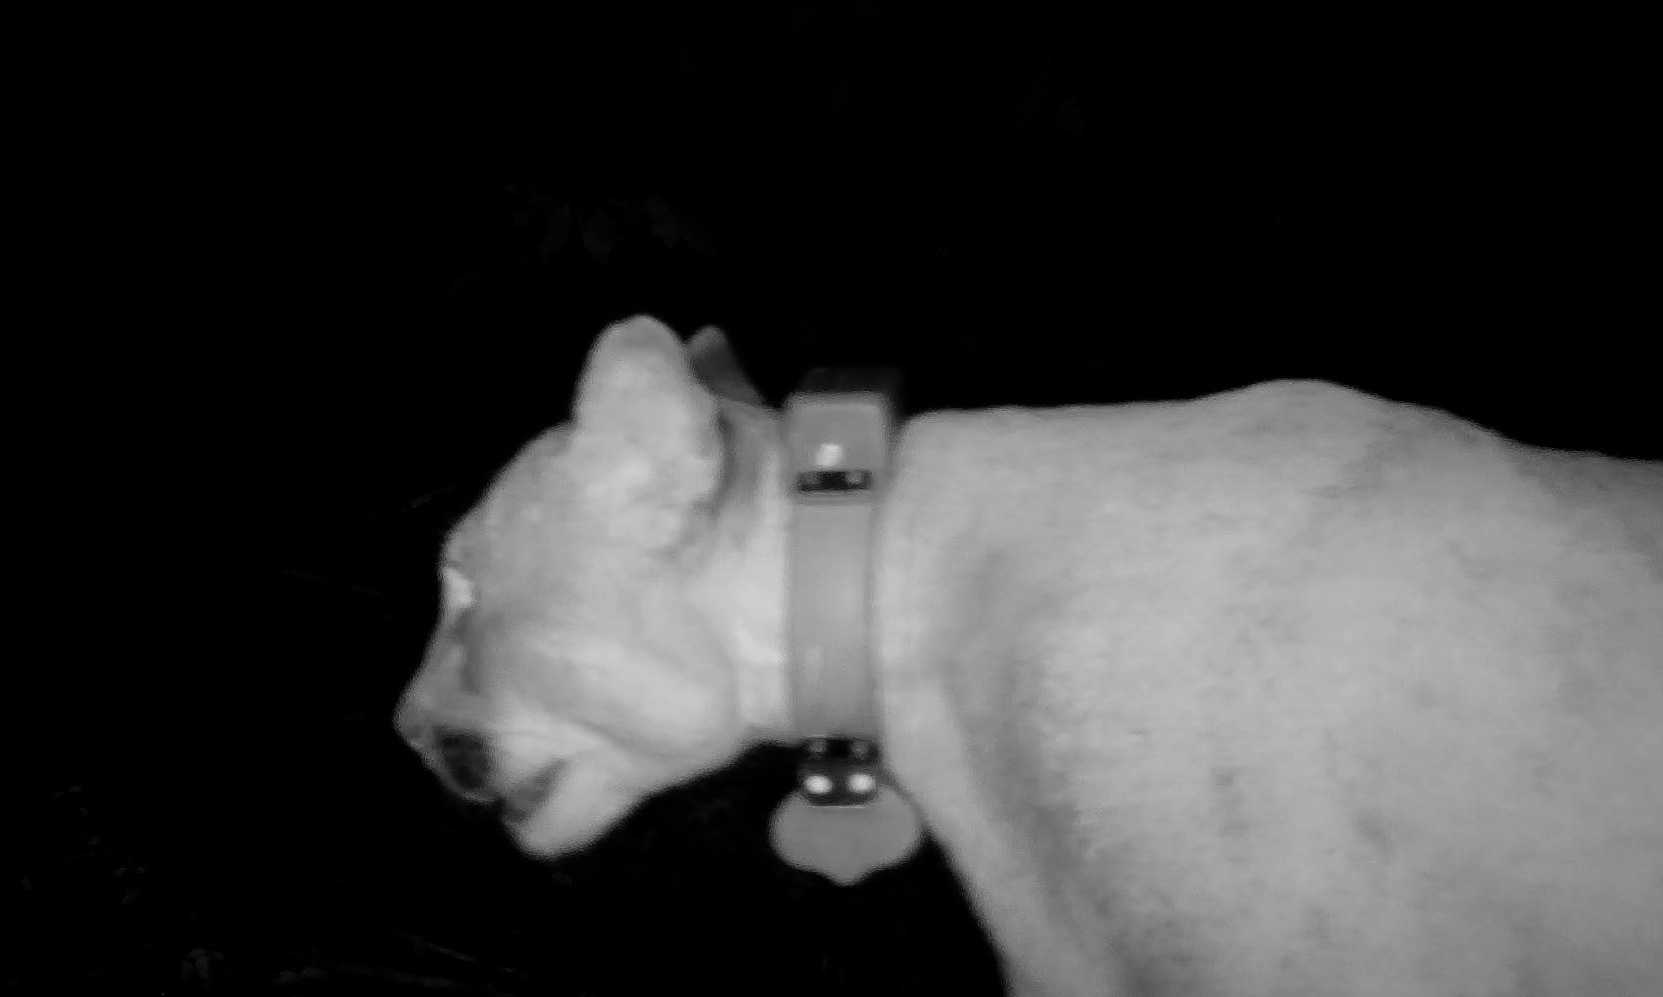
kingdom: Animalia
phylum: Chordata
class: Mammalia
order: Carnivora
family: Felidae
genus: Puma
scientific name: Puma concolor
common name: Puma
